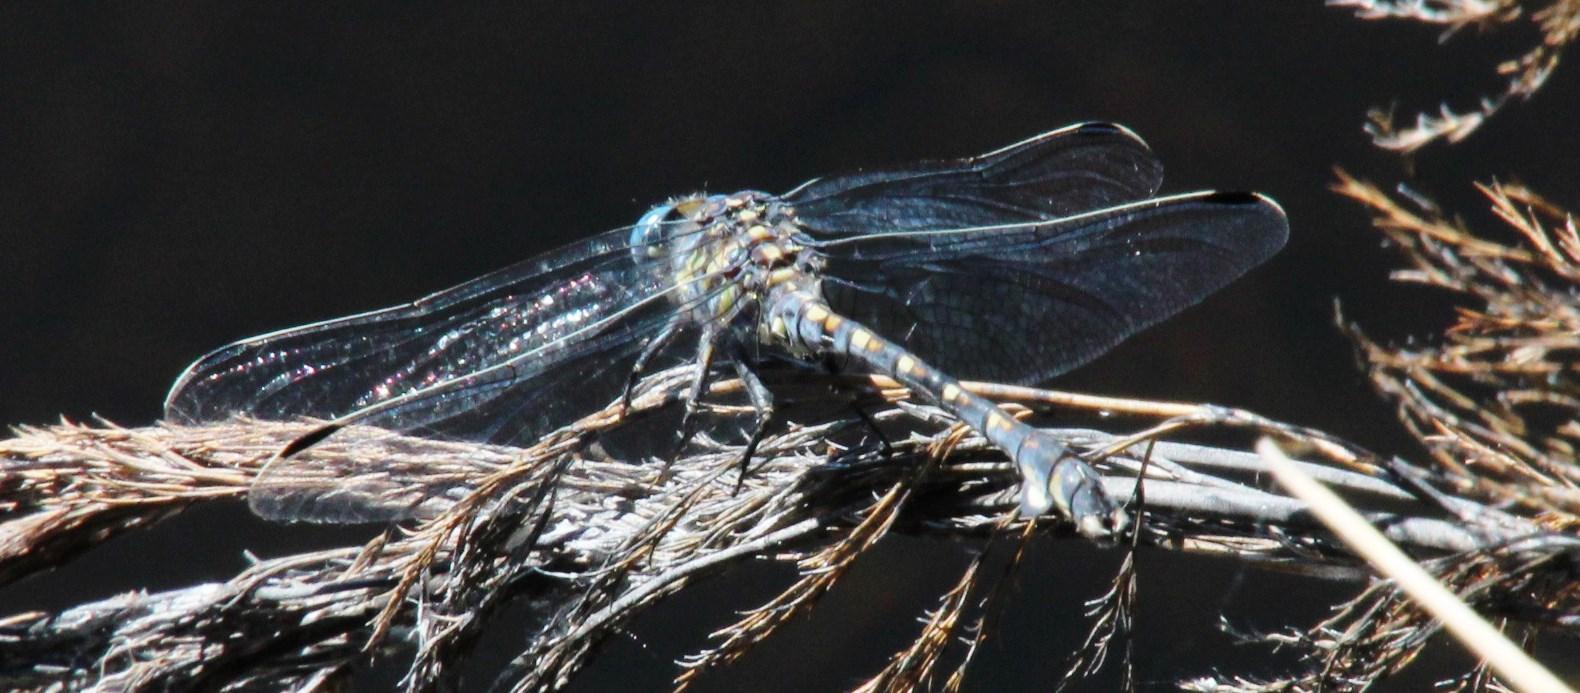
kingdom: Animalia
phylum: Arthropoda
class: Insecta
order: Odonata
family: Gomphidae
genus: Ceratogomphus
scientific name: Ceratogomphus triceraticus
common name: Cape thorntail
